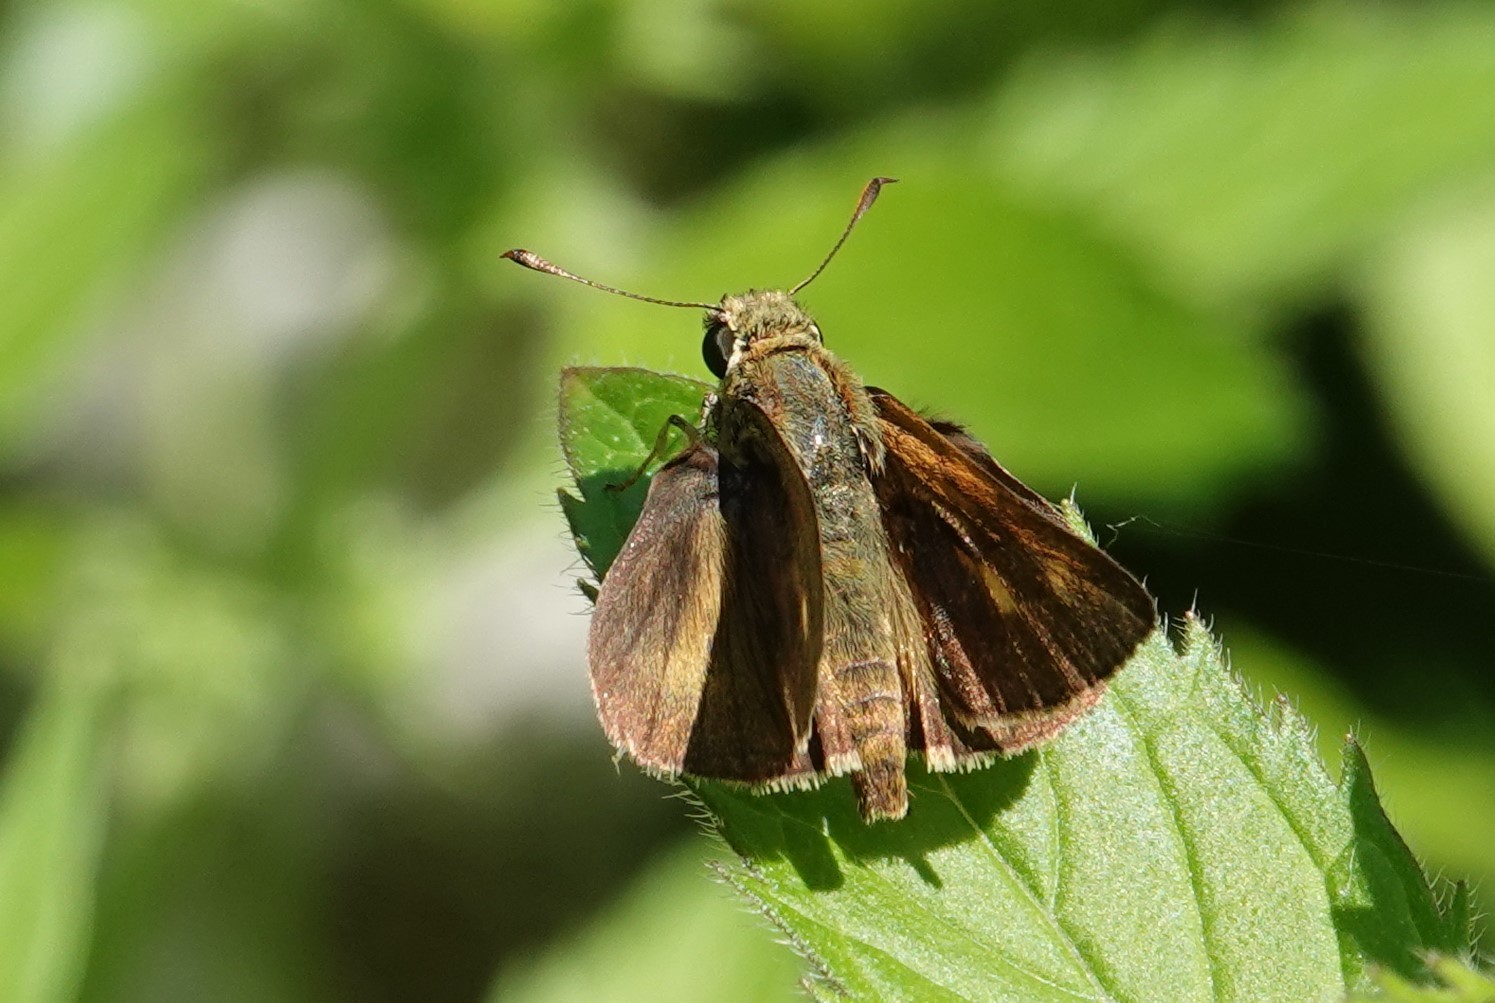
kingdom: Animalia
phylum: Arthropoda
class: Insecta
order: Lepidoptera
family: Hesperiidae
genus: Polites
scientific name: Polites egeremet
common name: Northern broken-dash
